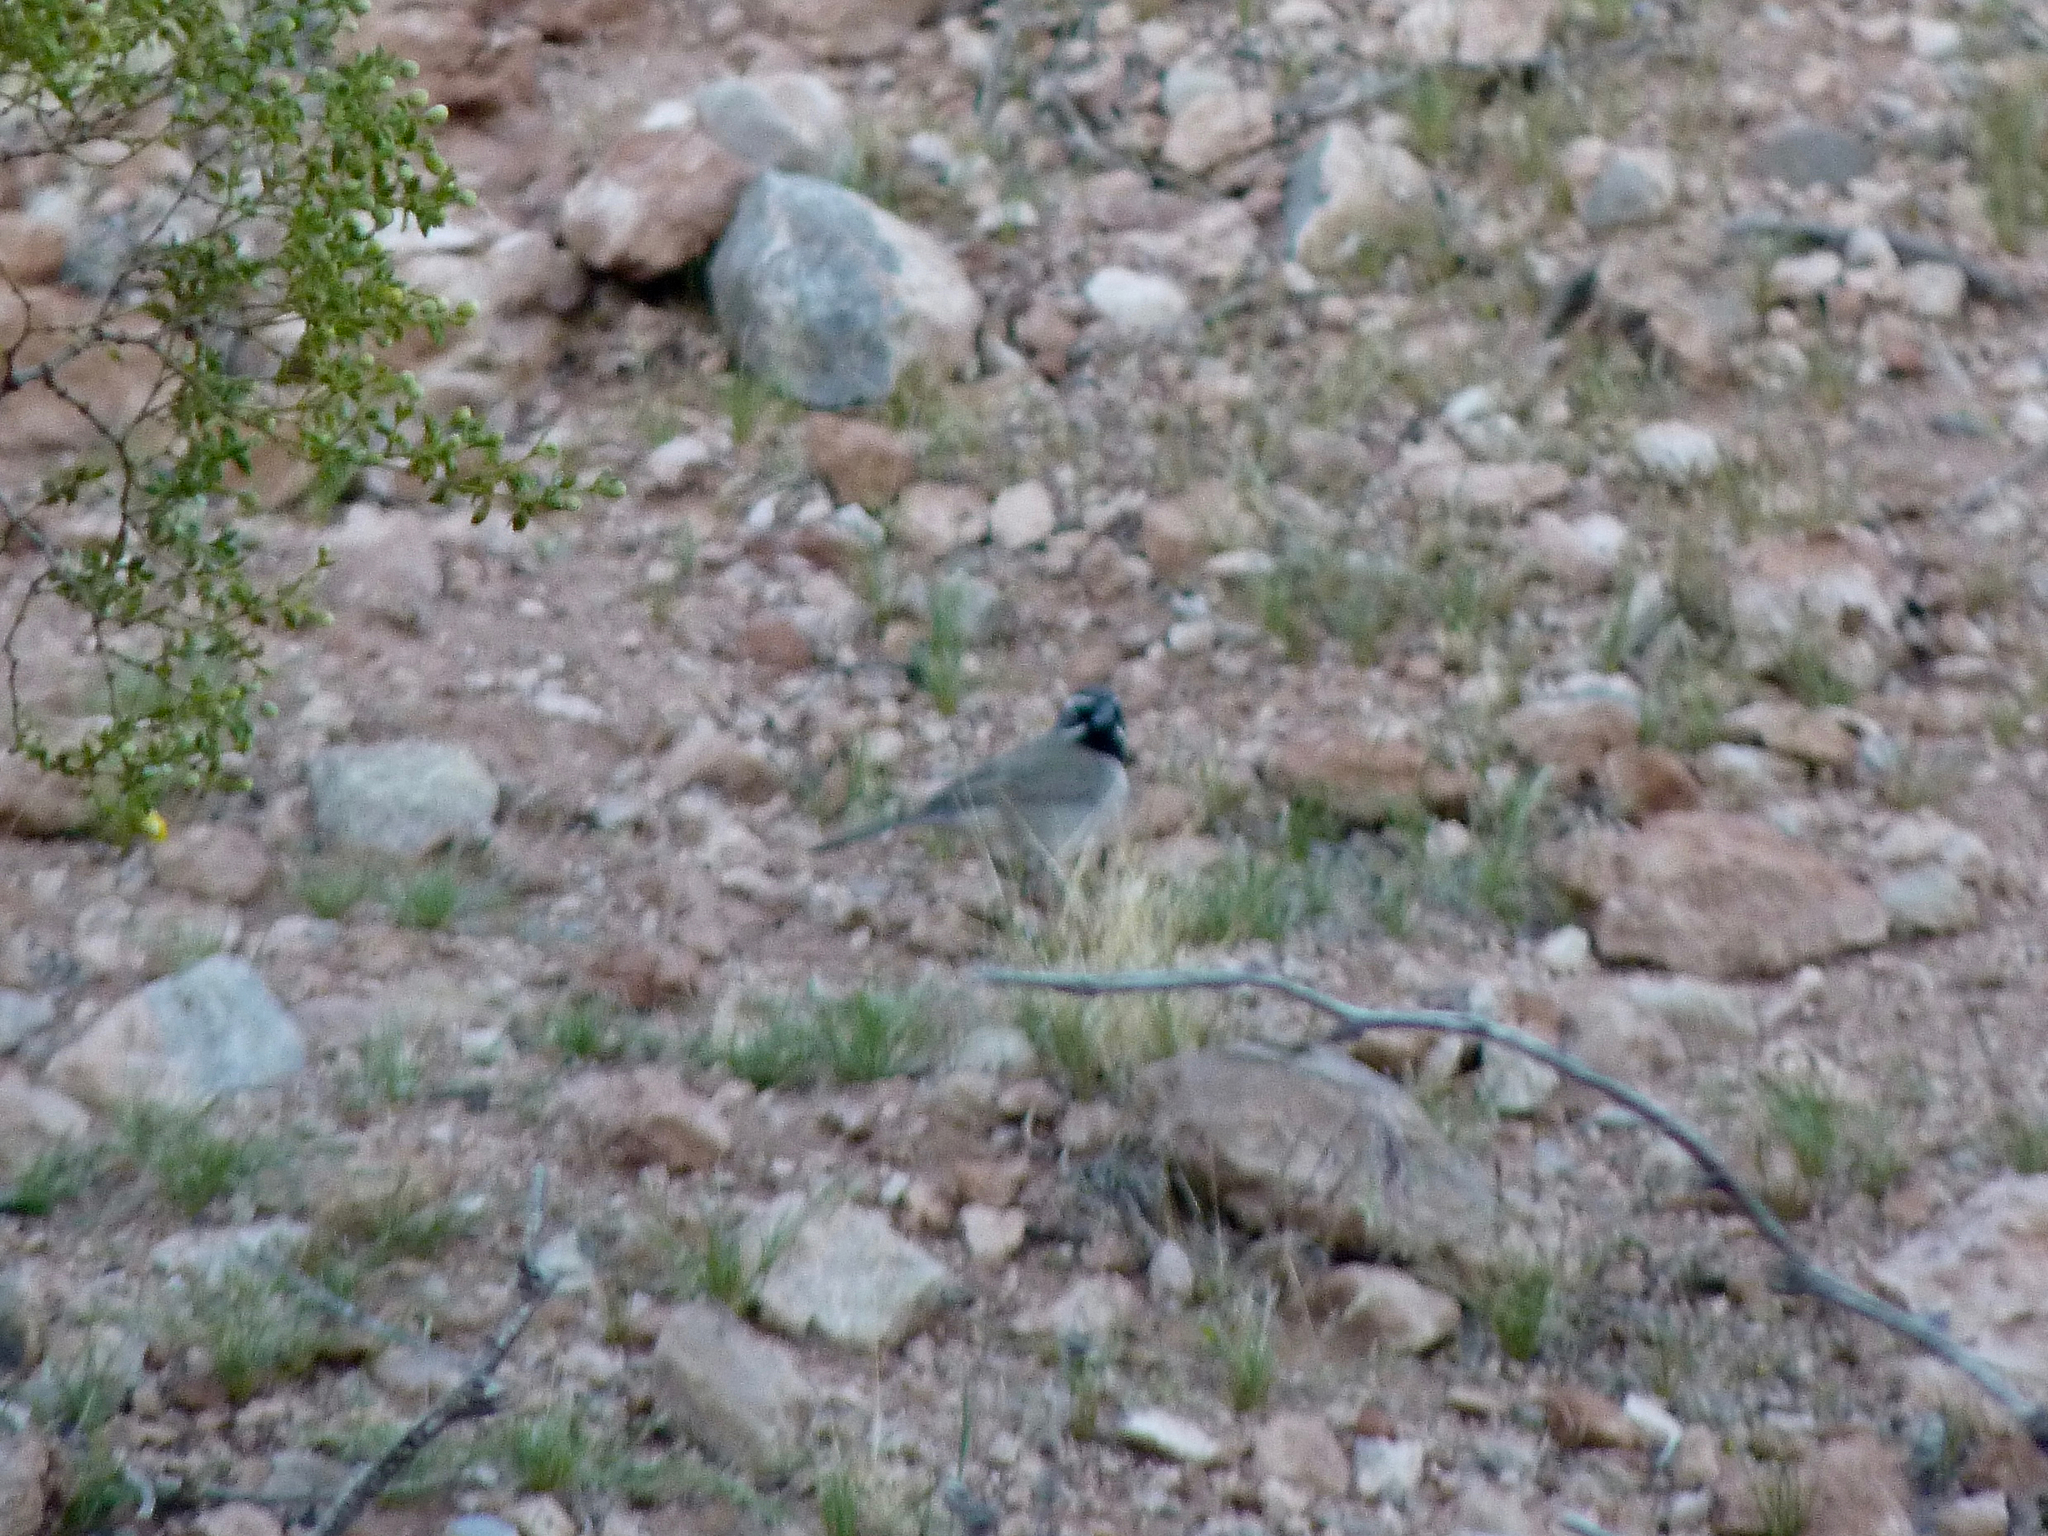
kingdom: Animalia
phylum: Chordata
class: Aves
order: Passeriformes
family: Passerellidae
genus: Amphispiza
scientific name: Amphispiza bilineata
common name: Black-throated sparrow
